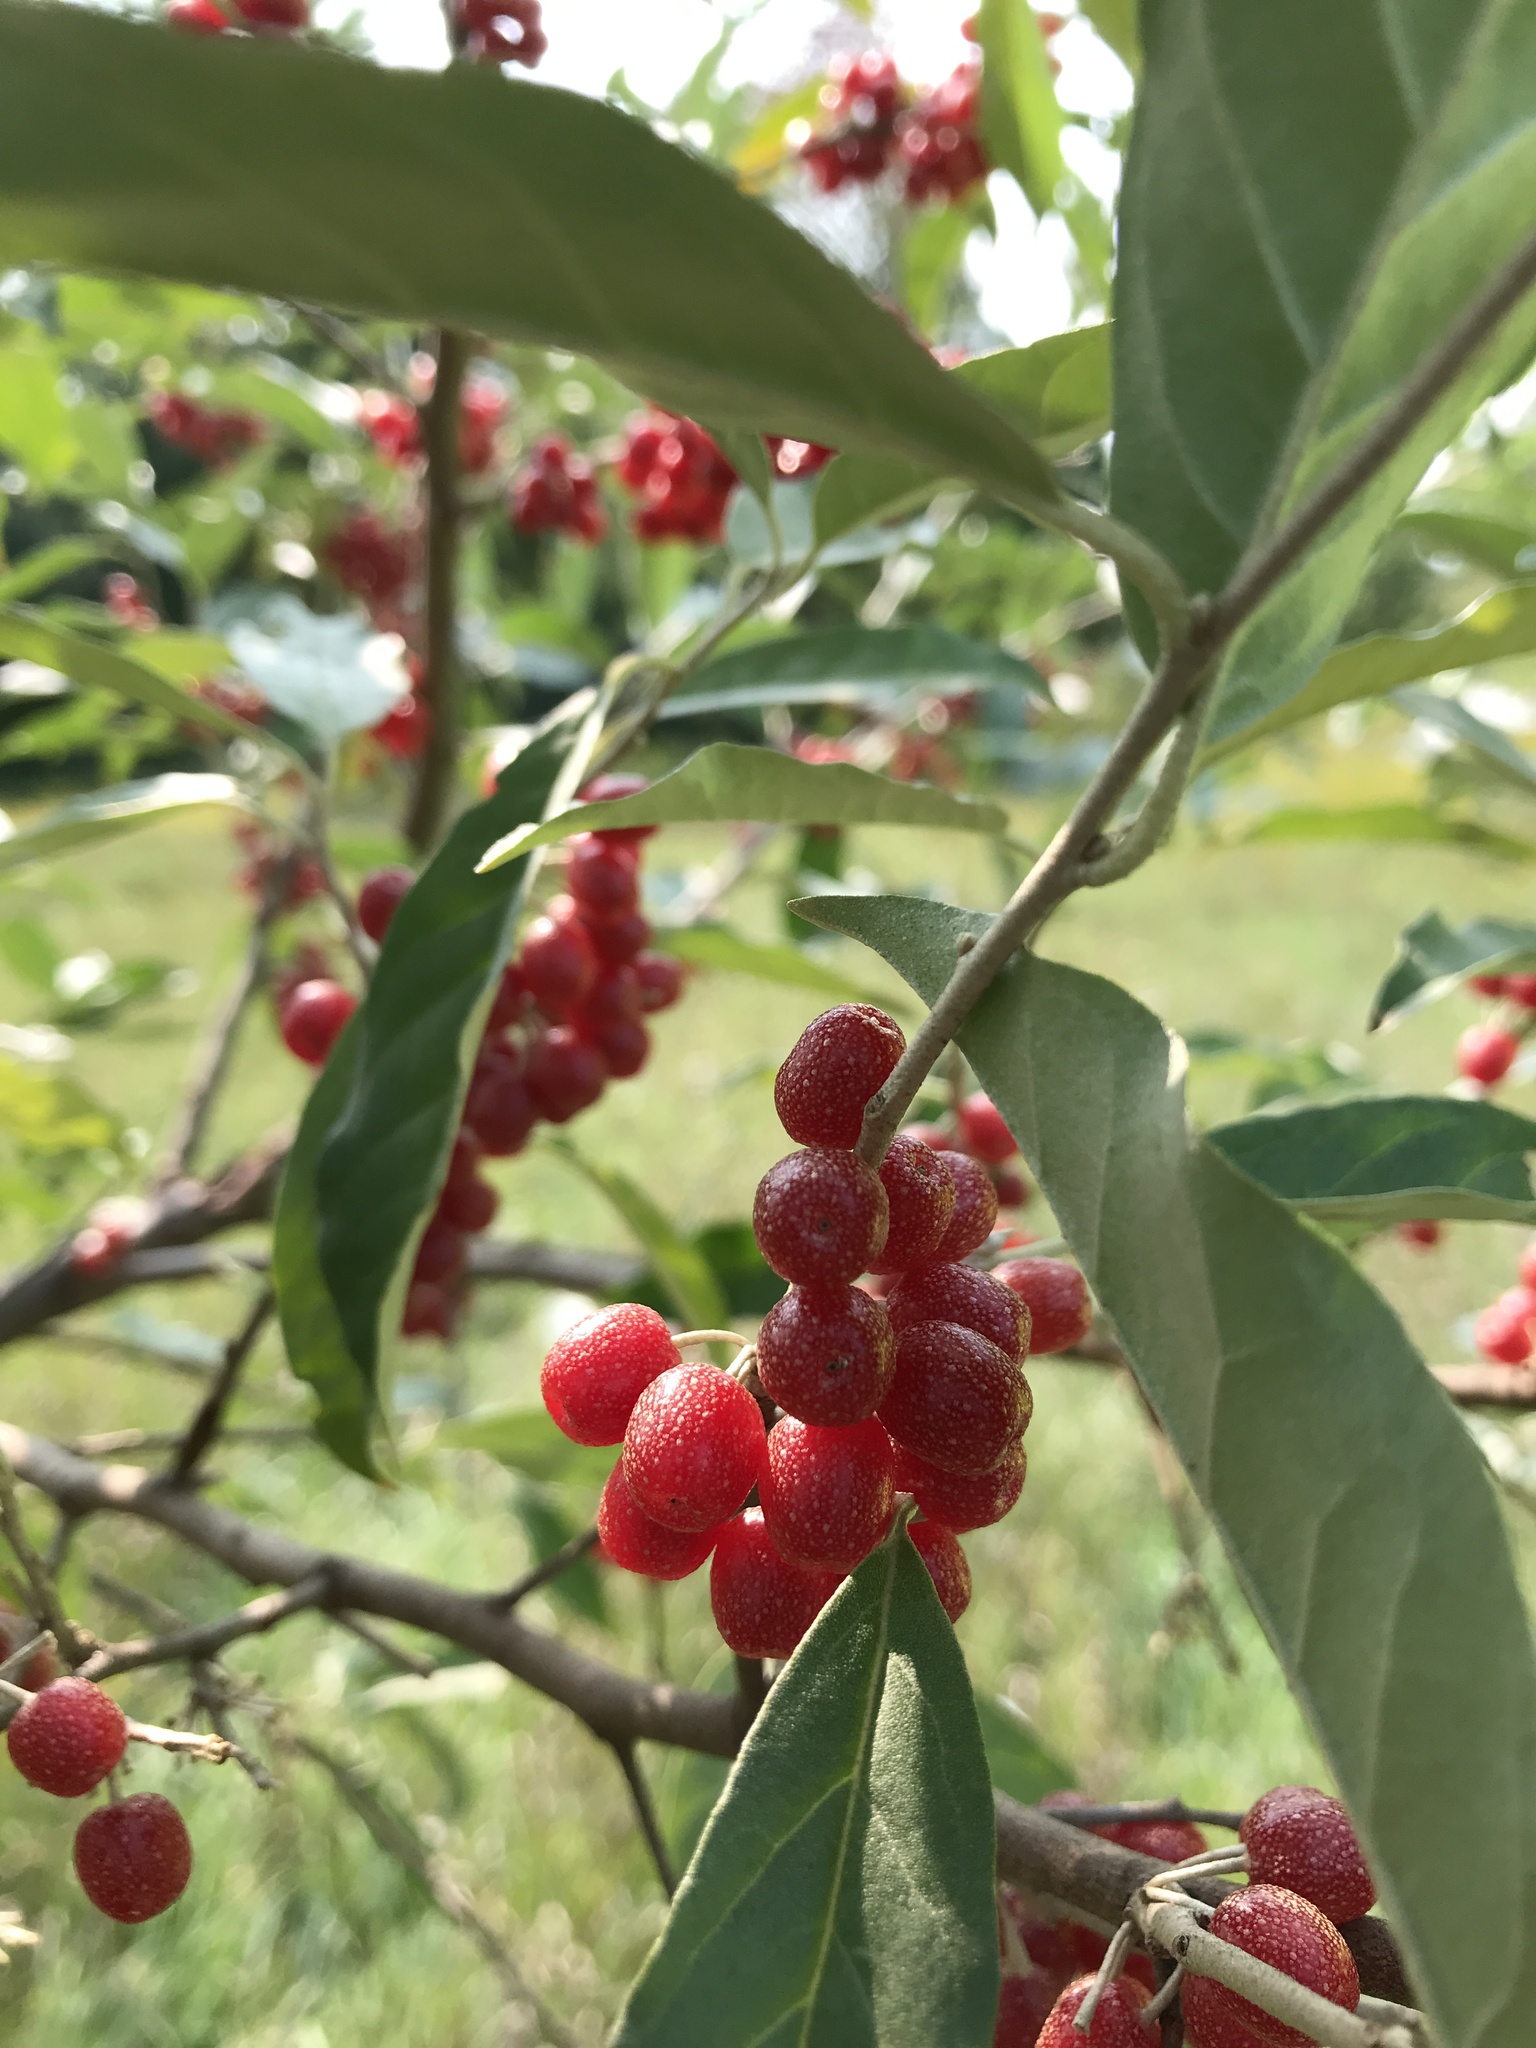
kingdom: Plantae
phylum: Tracheophyta
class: Magnoliopsida
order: Rosales
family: Elaeagnaceae
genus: Elaeagnus
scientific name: Elaeagnus umbellata
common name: Autumn olive
